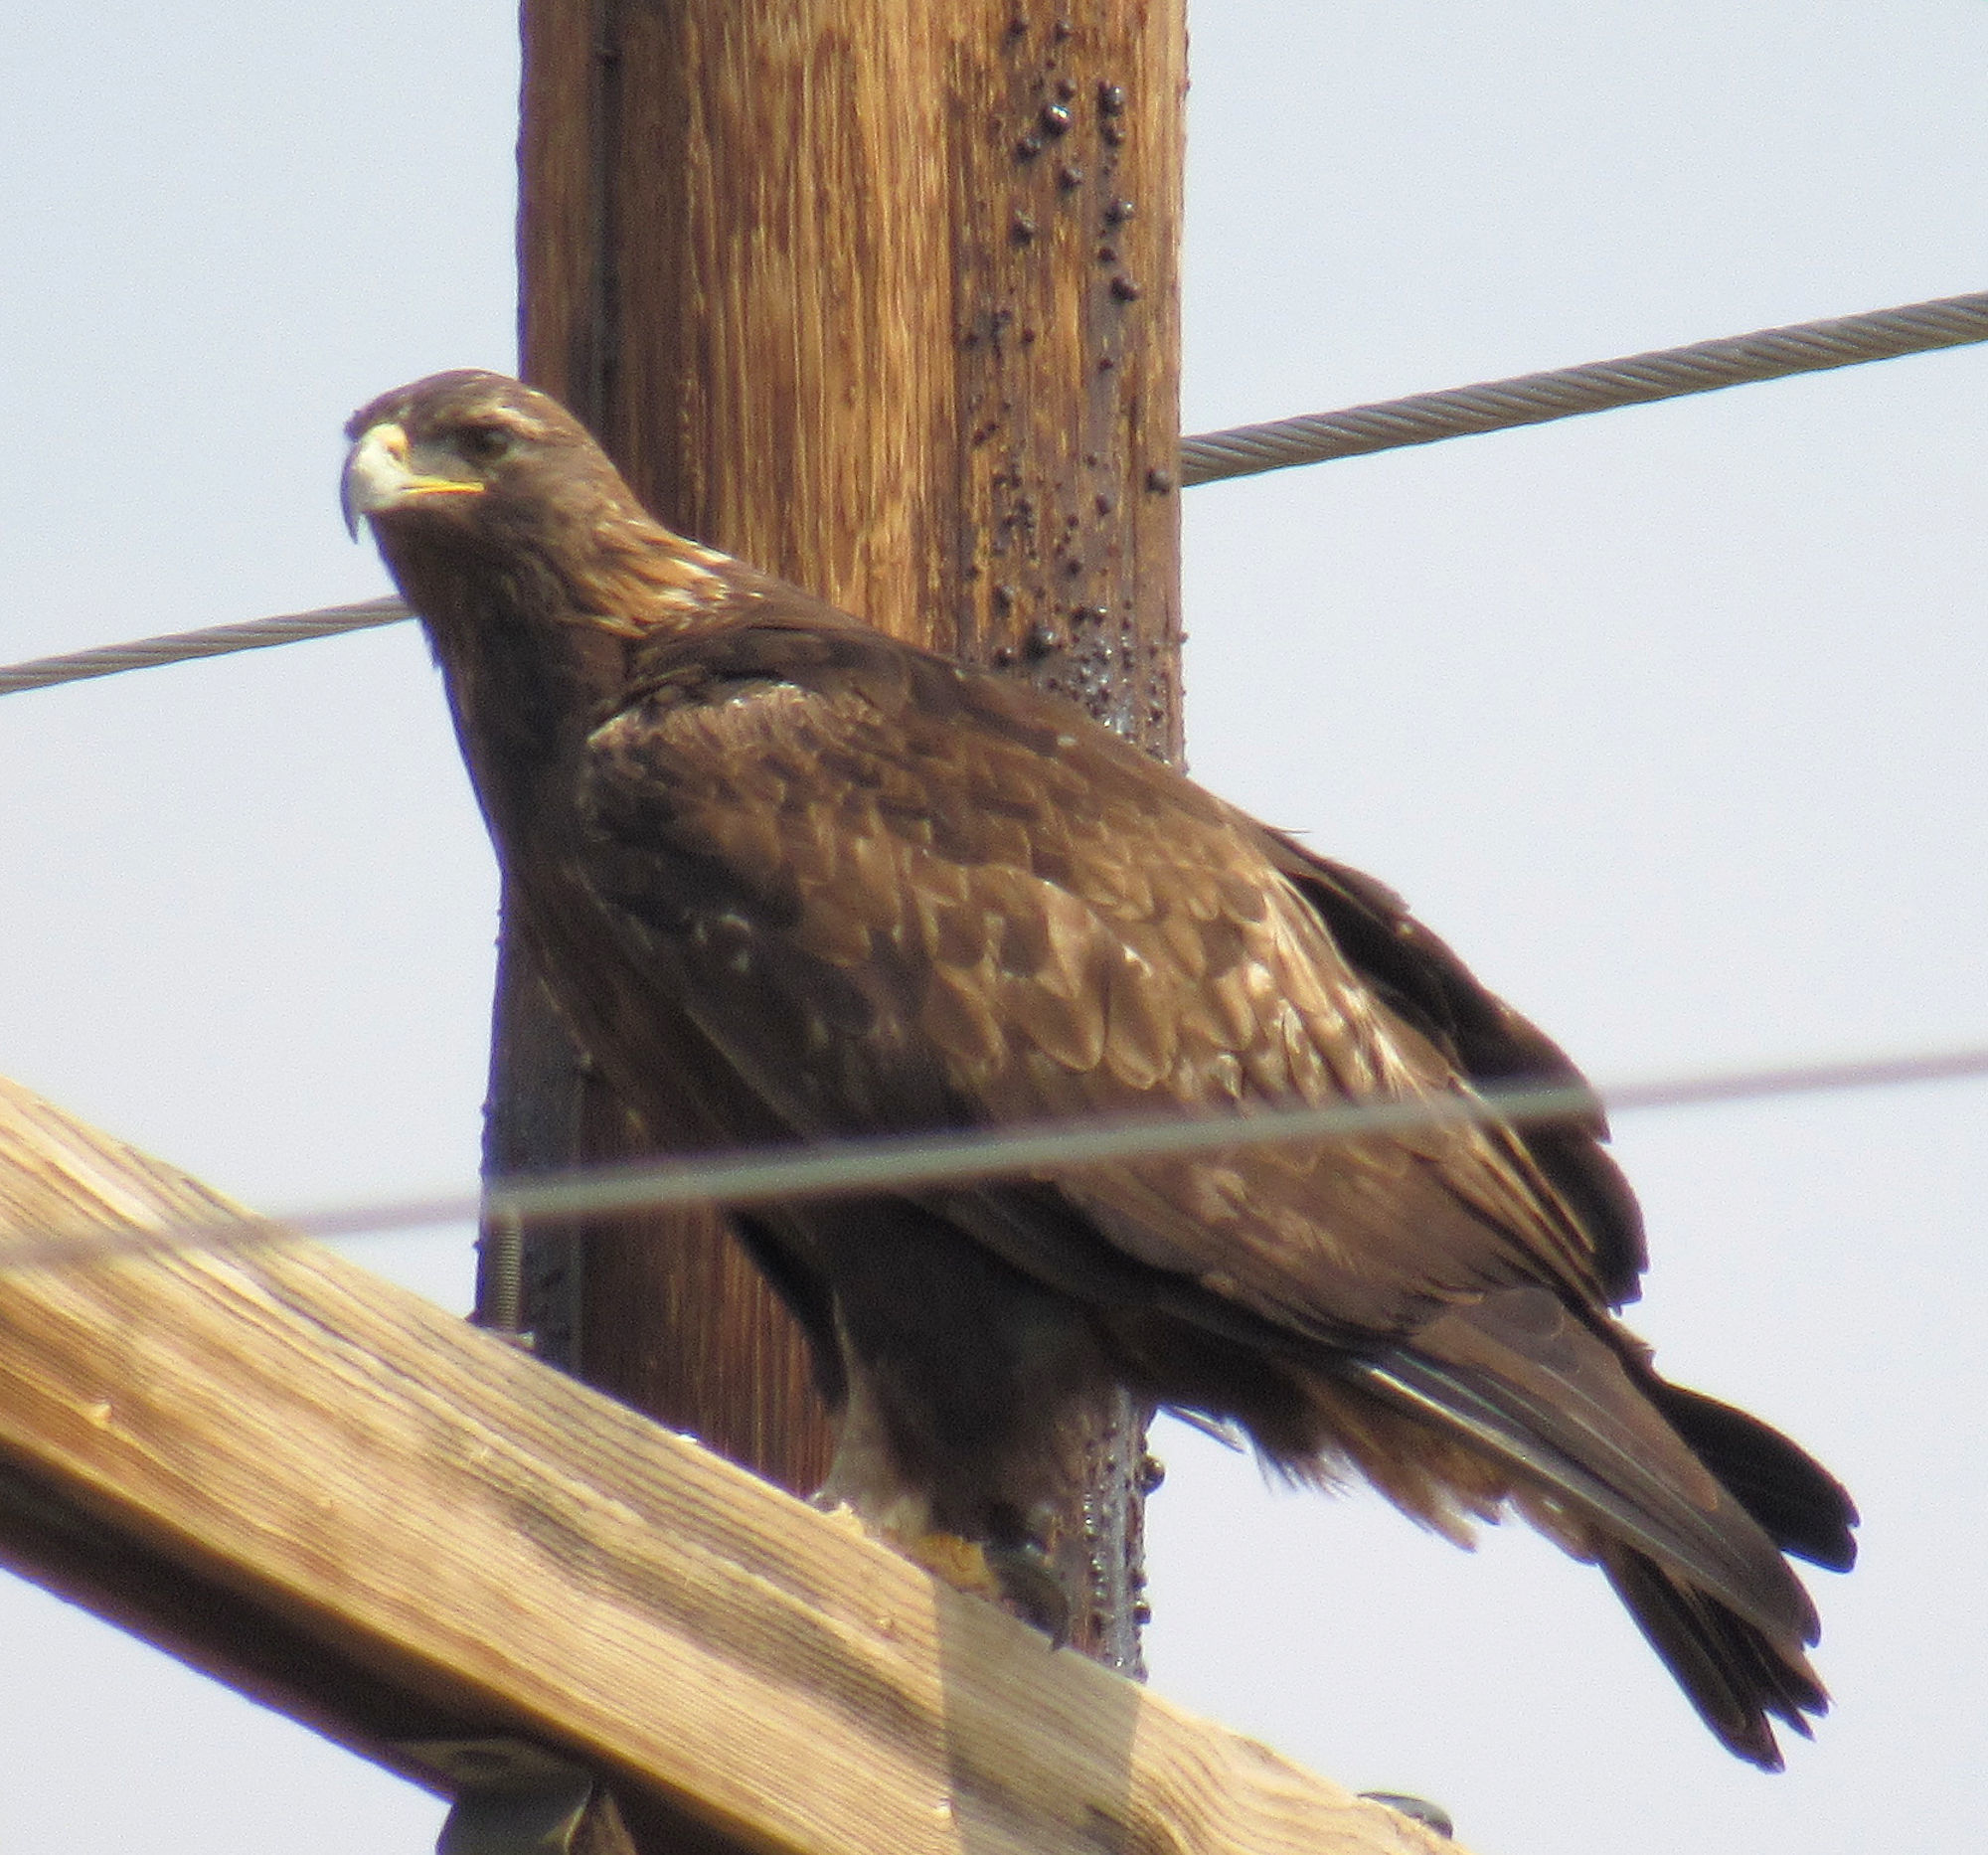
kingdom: Animalia
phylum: Chordata
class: Aves
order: Accipitriformes
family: Accipitridae
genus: Aquila
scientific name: Aquila chrysaetos
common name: Golden eagle
